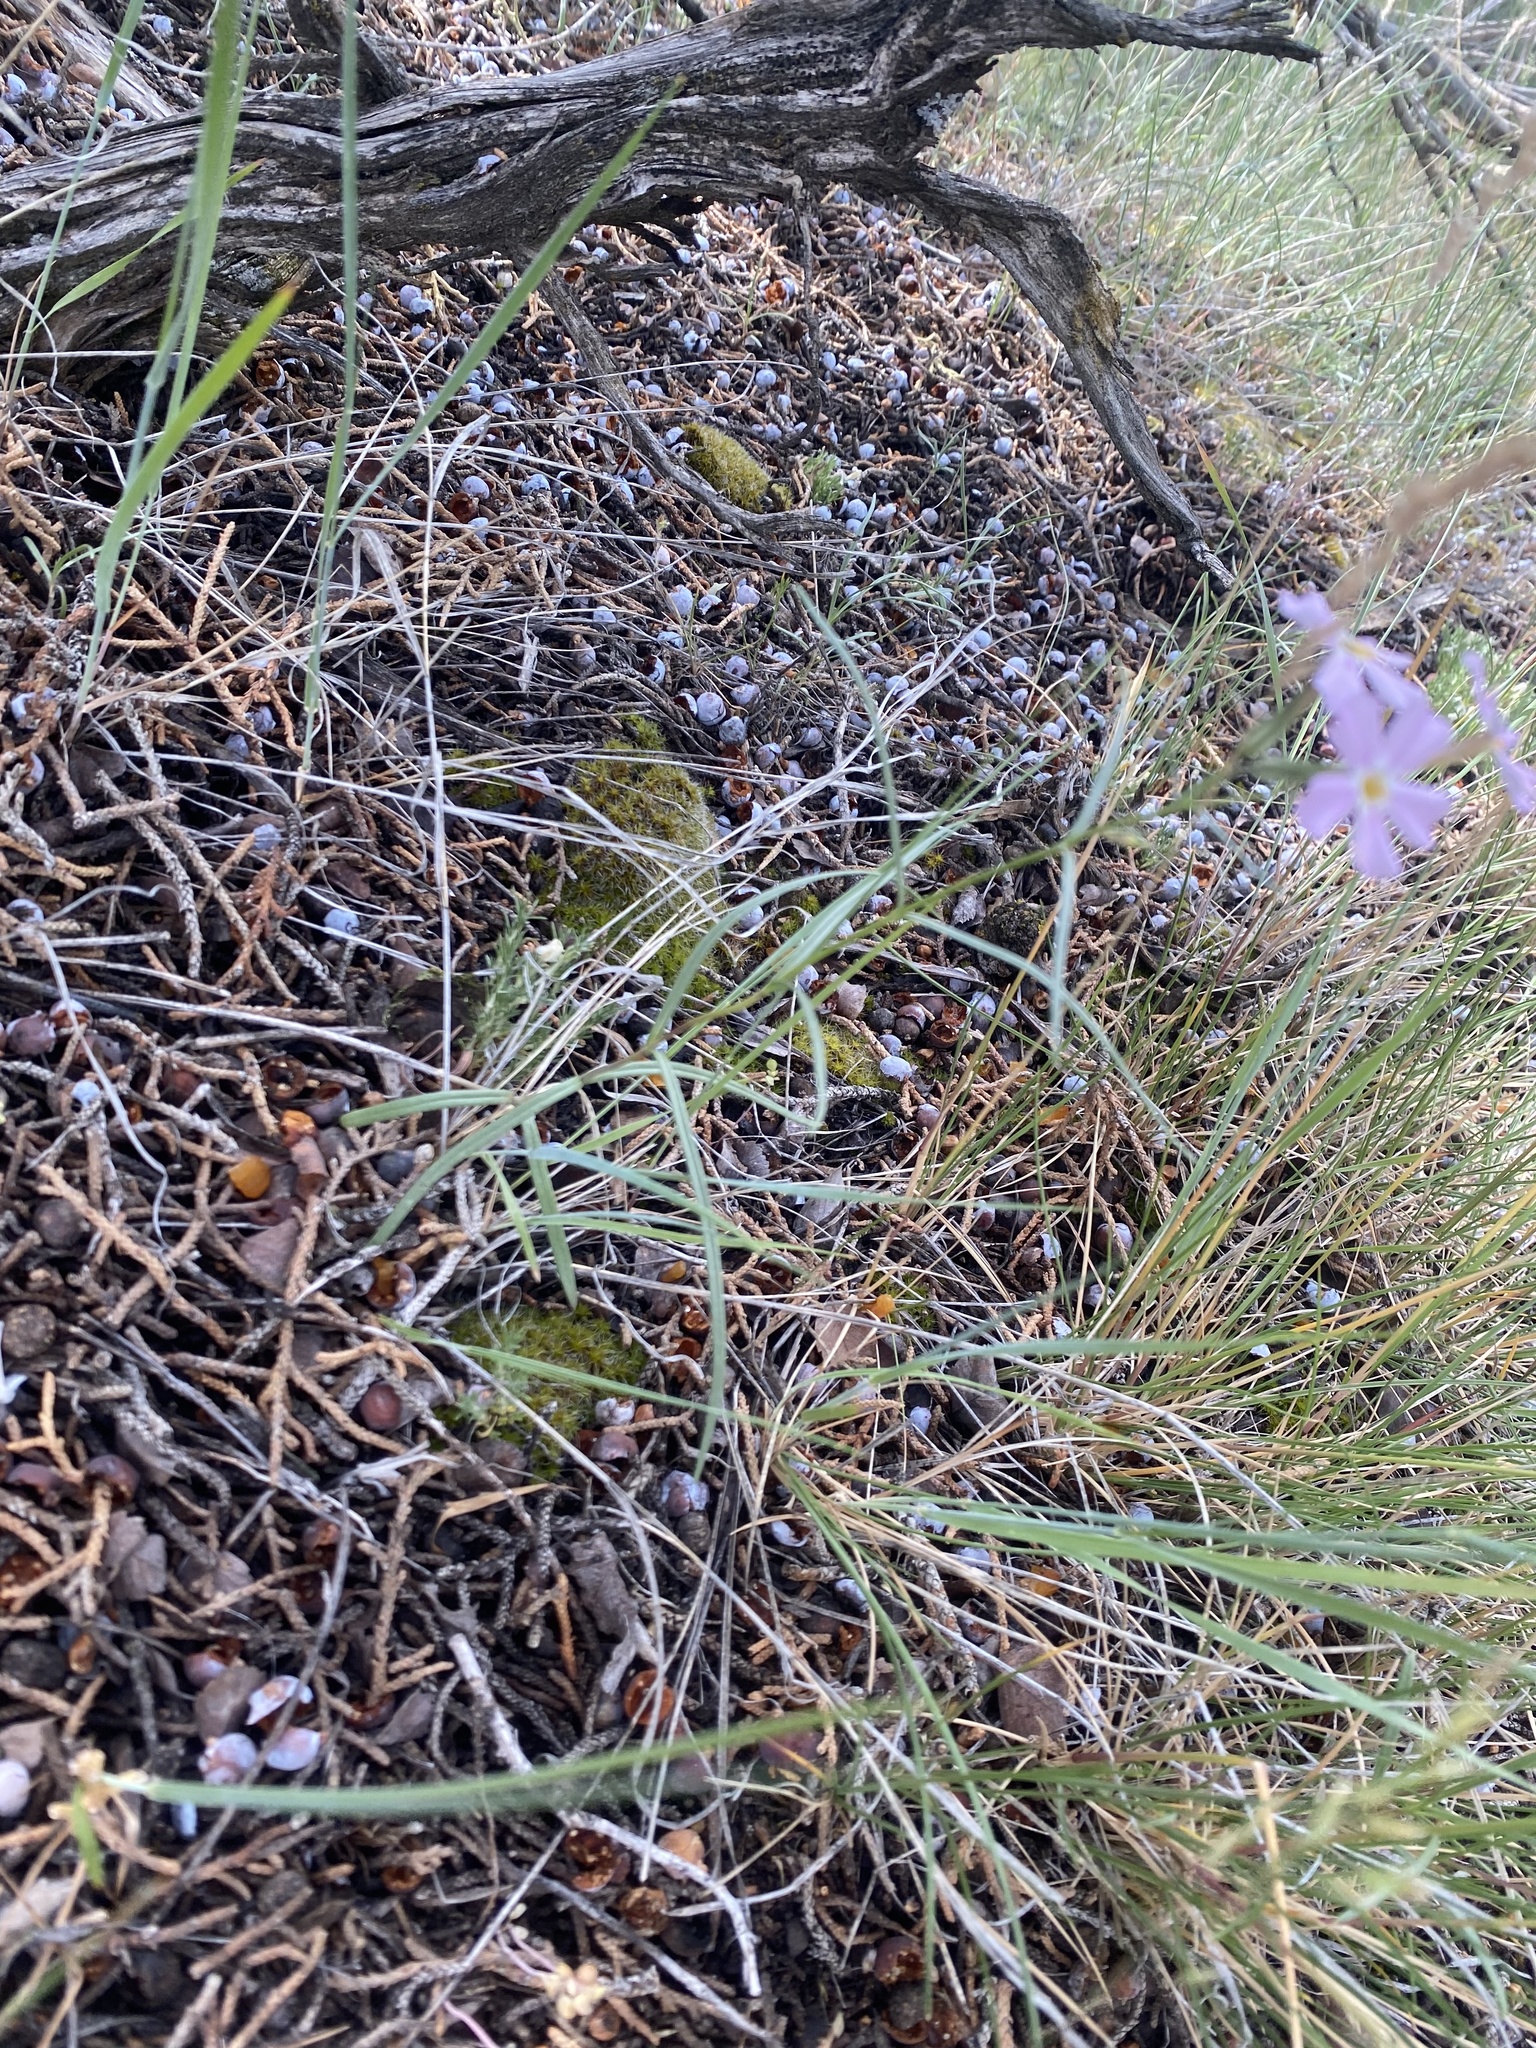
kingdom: Plantae
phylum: Tracheophyta
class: Magnoliopsida
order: Ericales
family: Polemoniaceae
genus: Phlox
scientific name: Phlox longifolia
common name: Longleaf phlox
